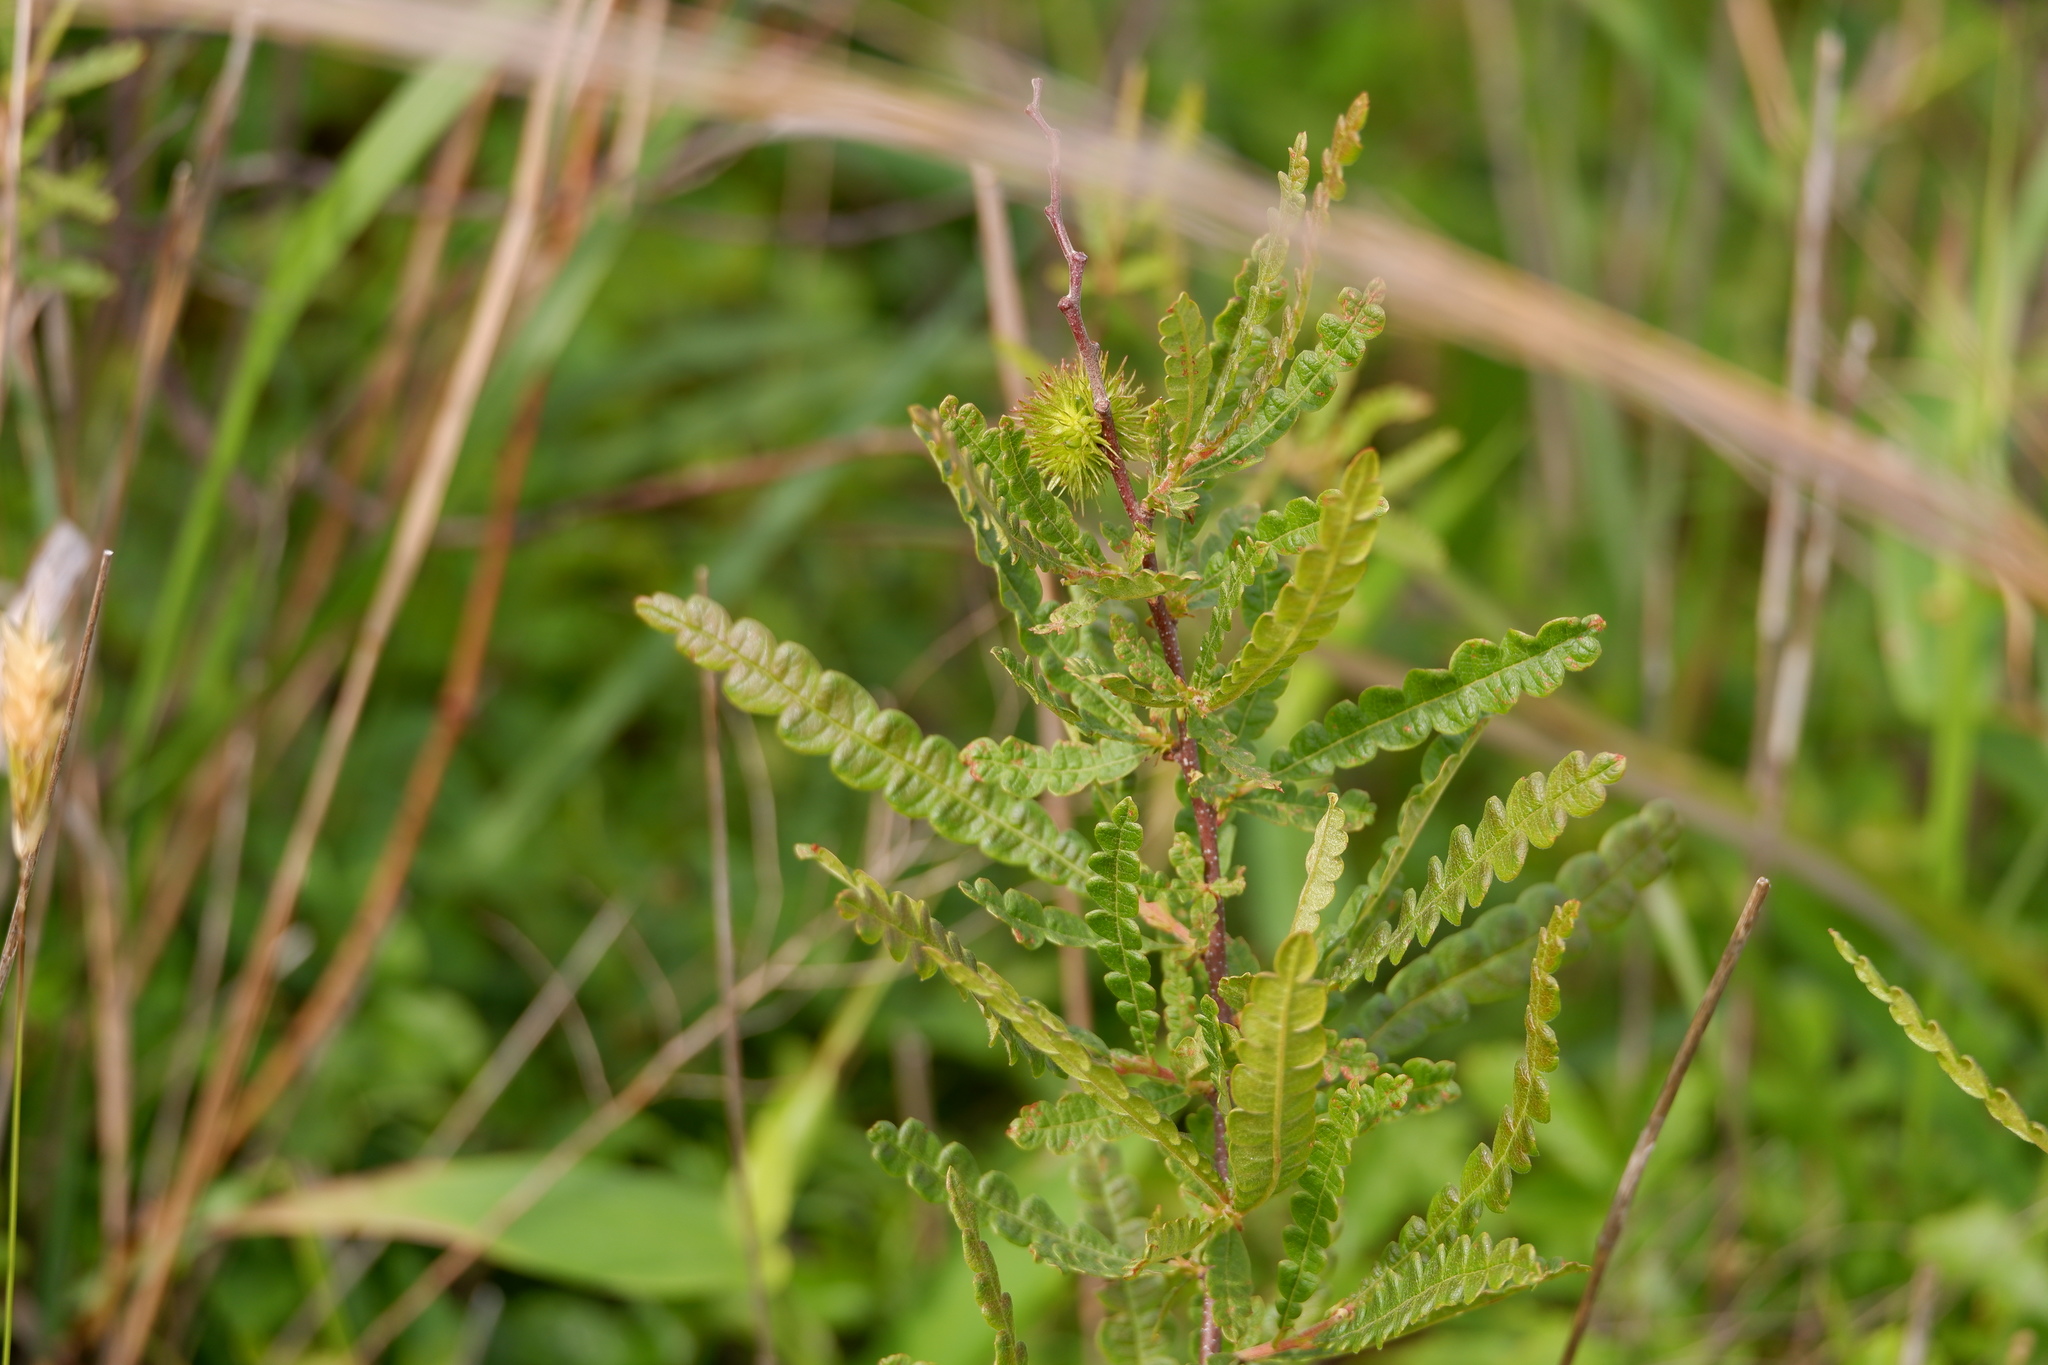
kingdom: Plantae
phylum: Tracheophyta
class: Magnoliopsida
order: Fagales
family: Myricaceae
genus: Comptonia
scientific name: Comptonia peregrina
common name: Sweet-fern
